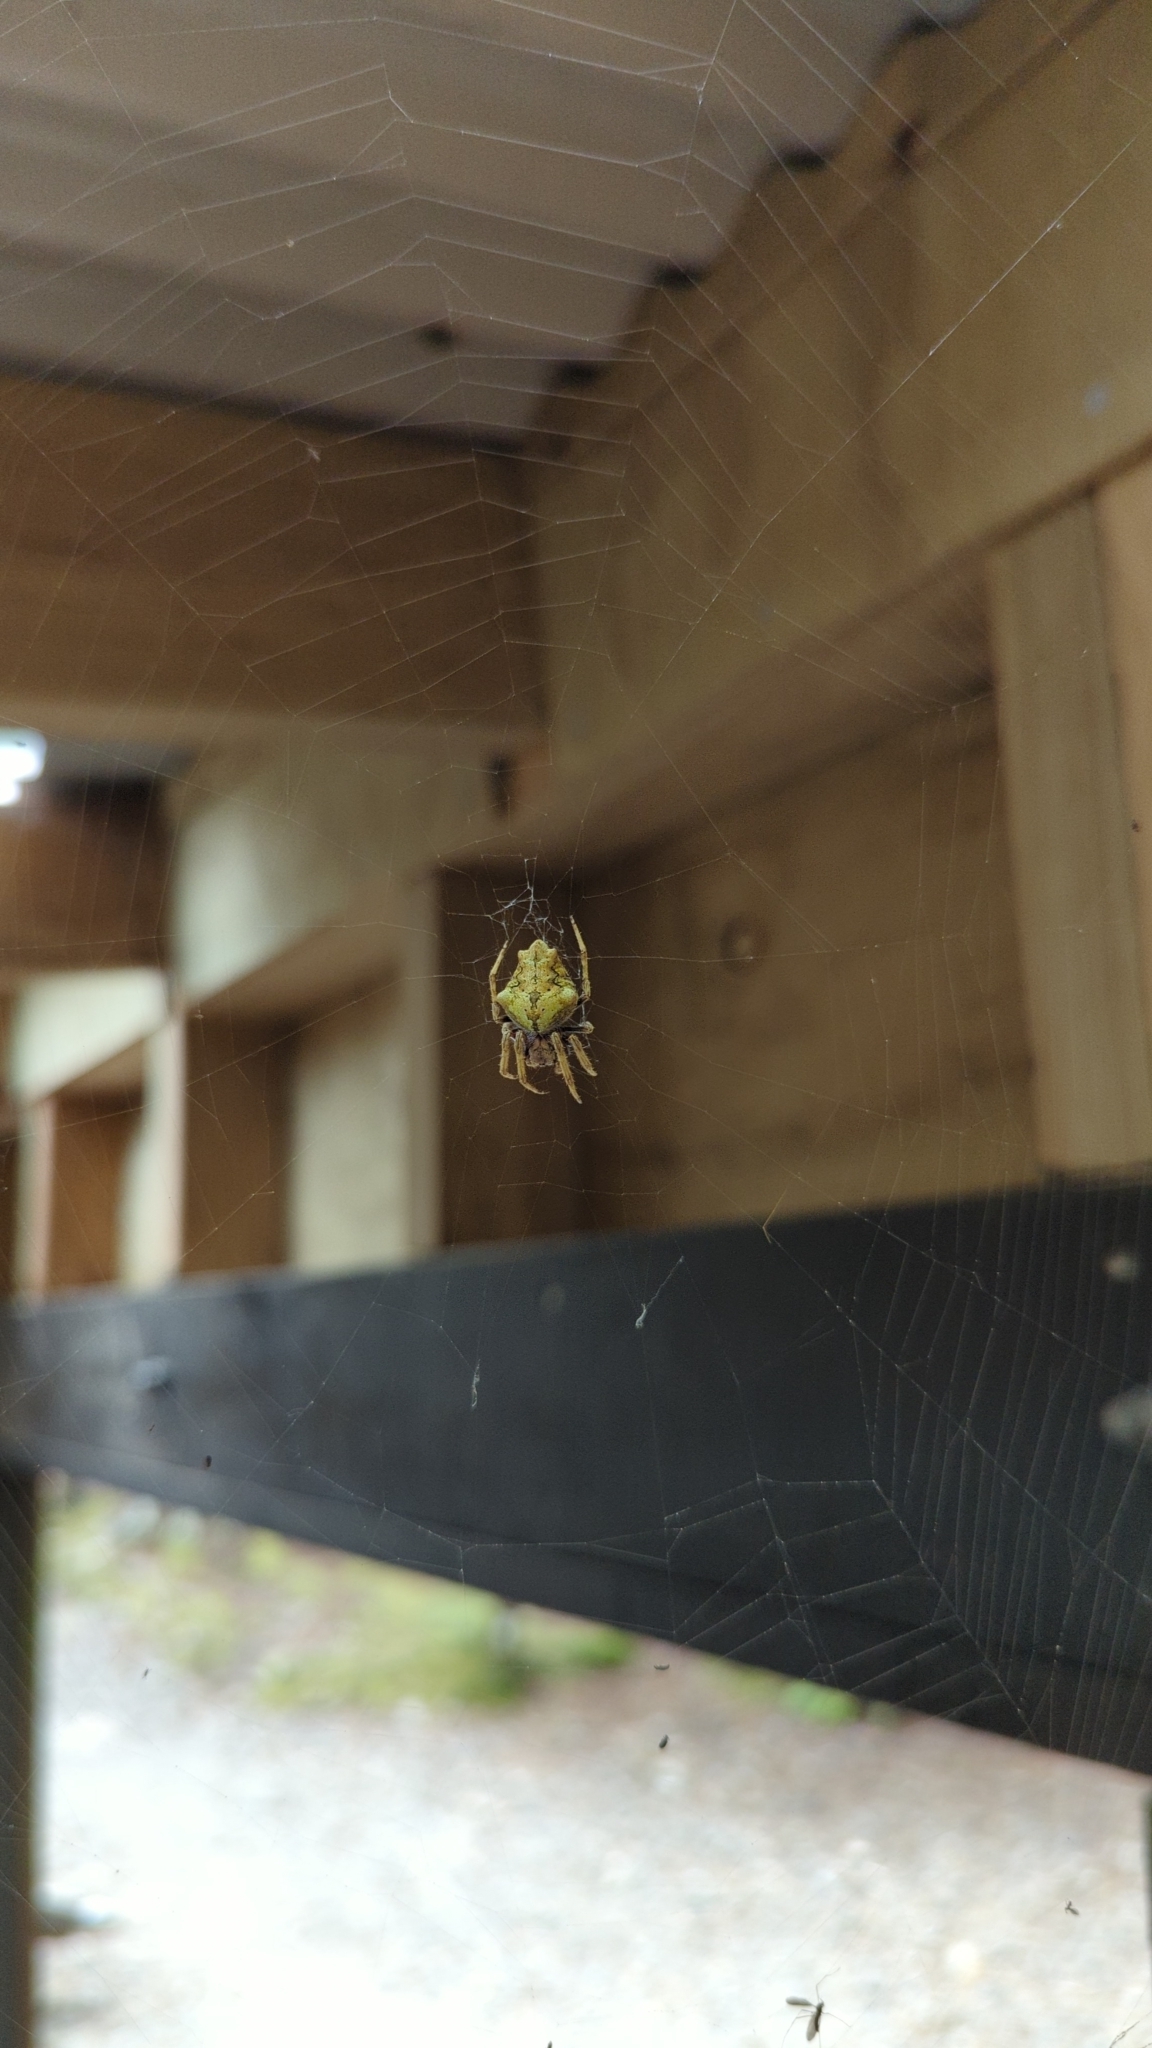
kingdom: Animalia
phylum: Arthropoda
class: Arachnida
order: Araneae
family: Araneidae
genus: Eriophora
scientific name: Eriophora pustulosa
